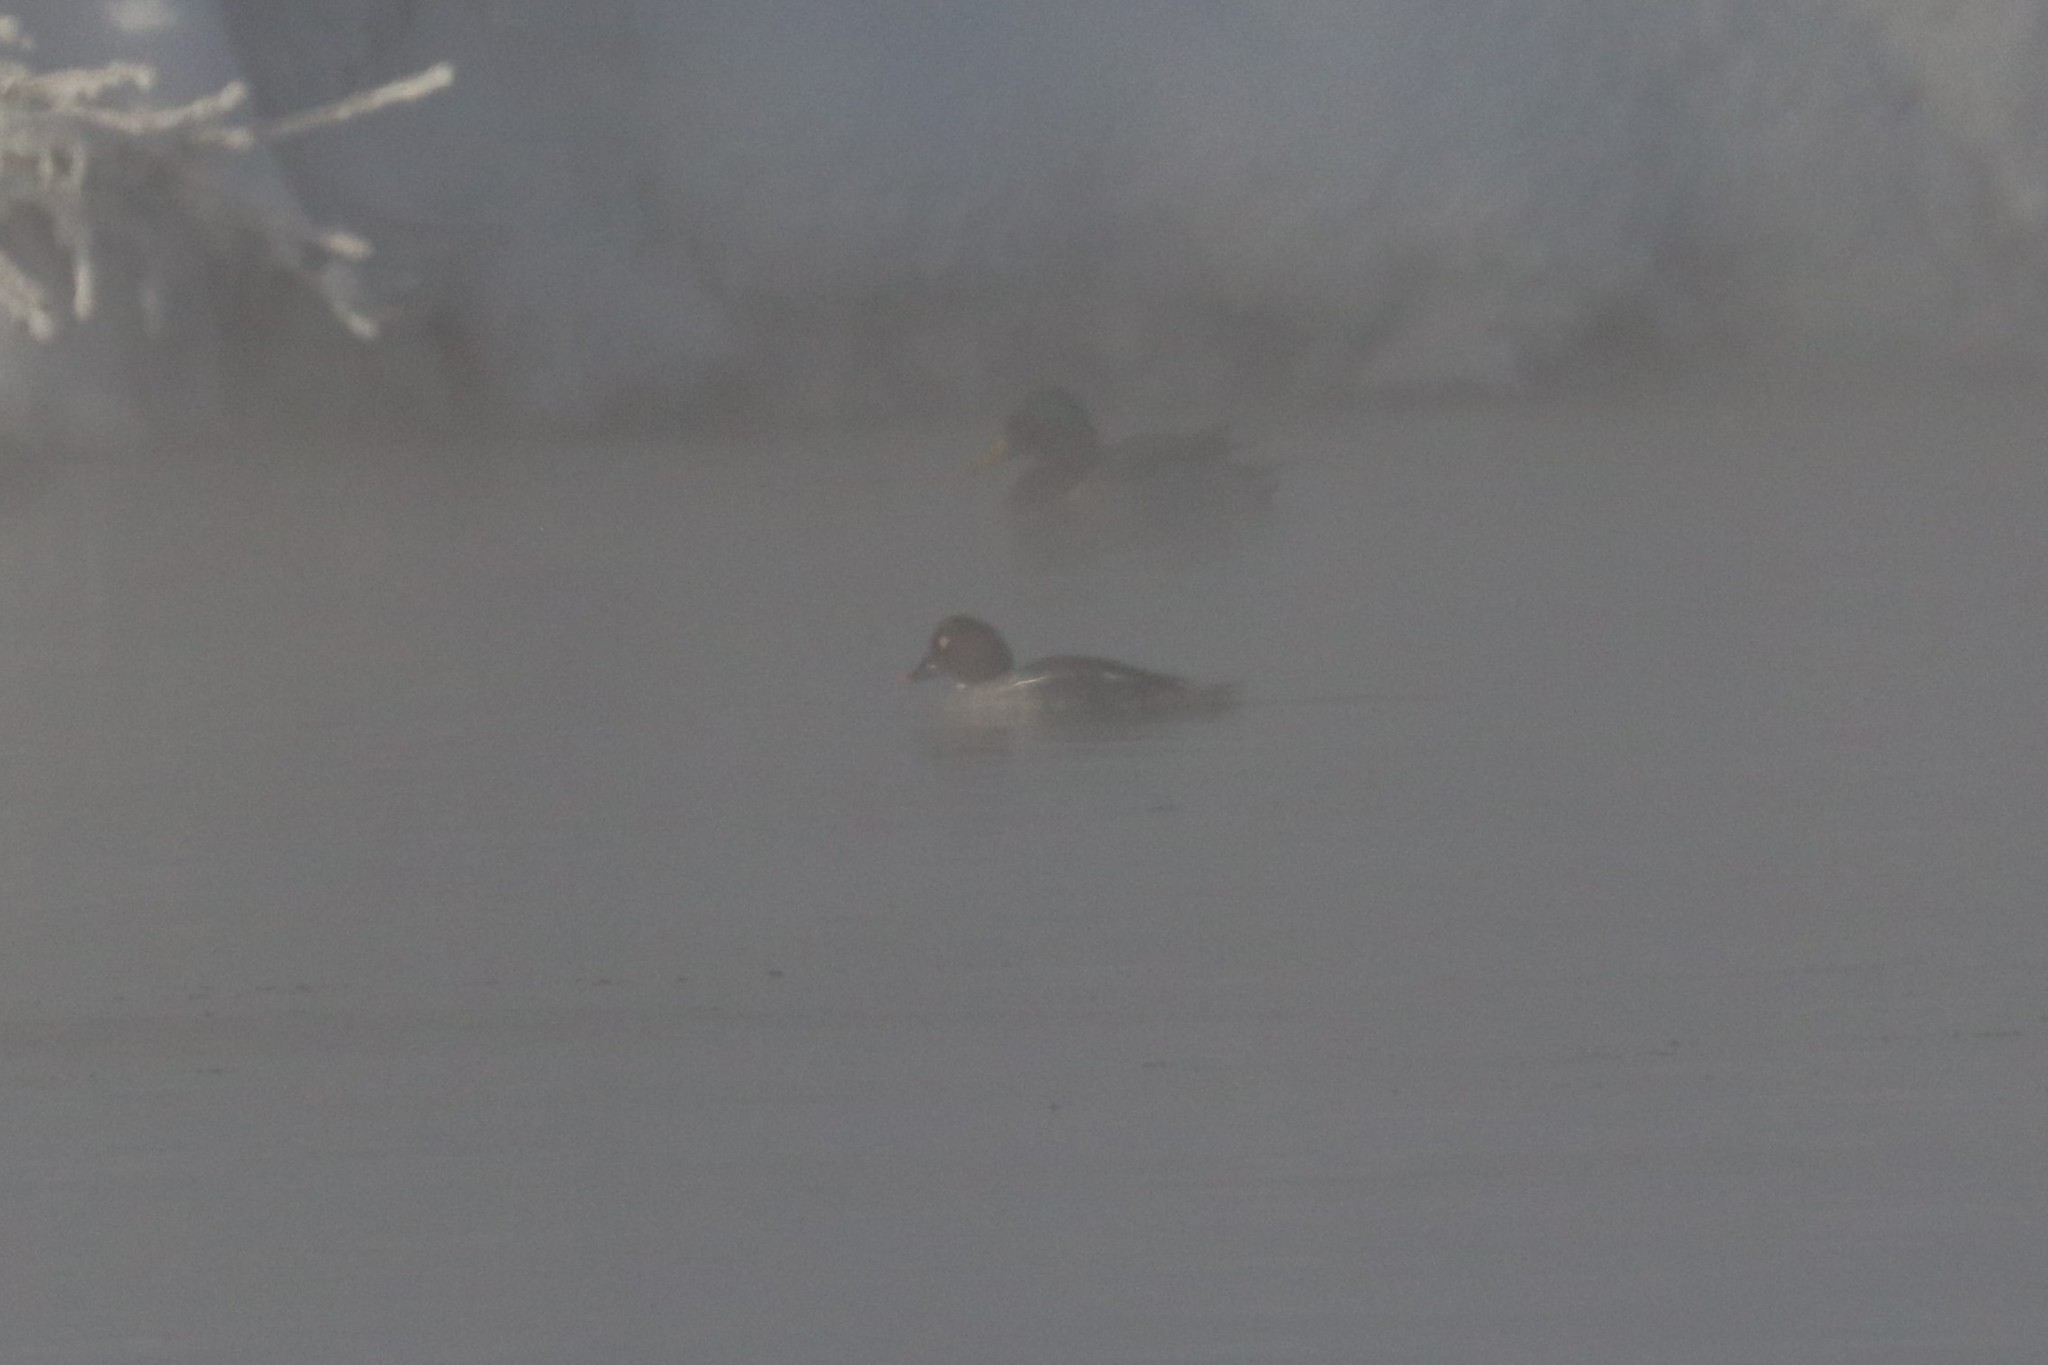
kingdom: Animalia
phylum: Chordata
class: Aves
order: Anseriformes
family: Anatidae
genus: Bucephala
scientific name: Bucephala clangula
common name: Common goldeneye
